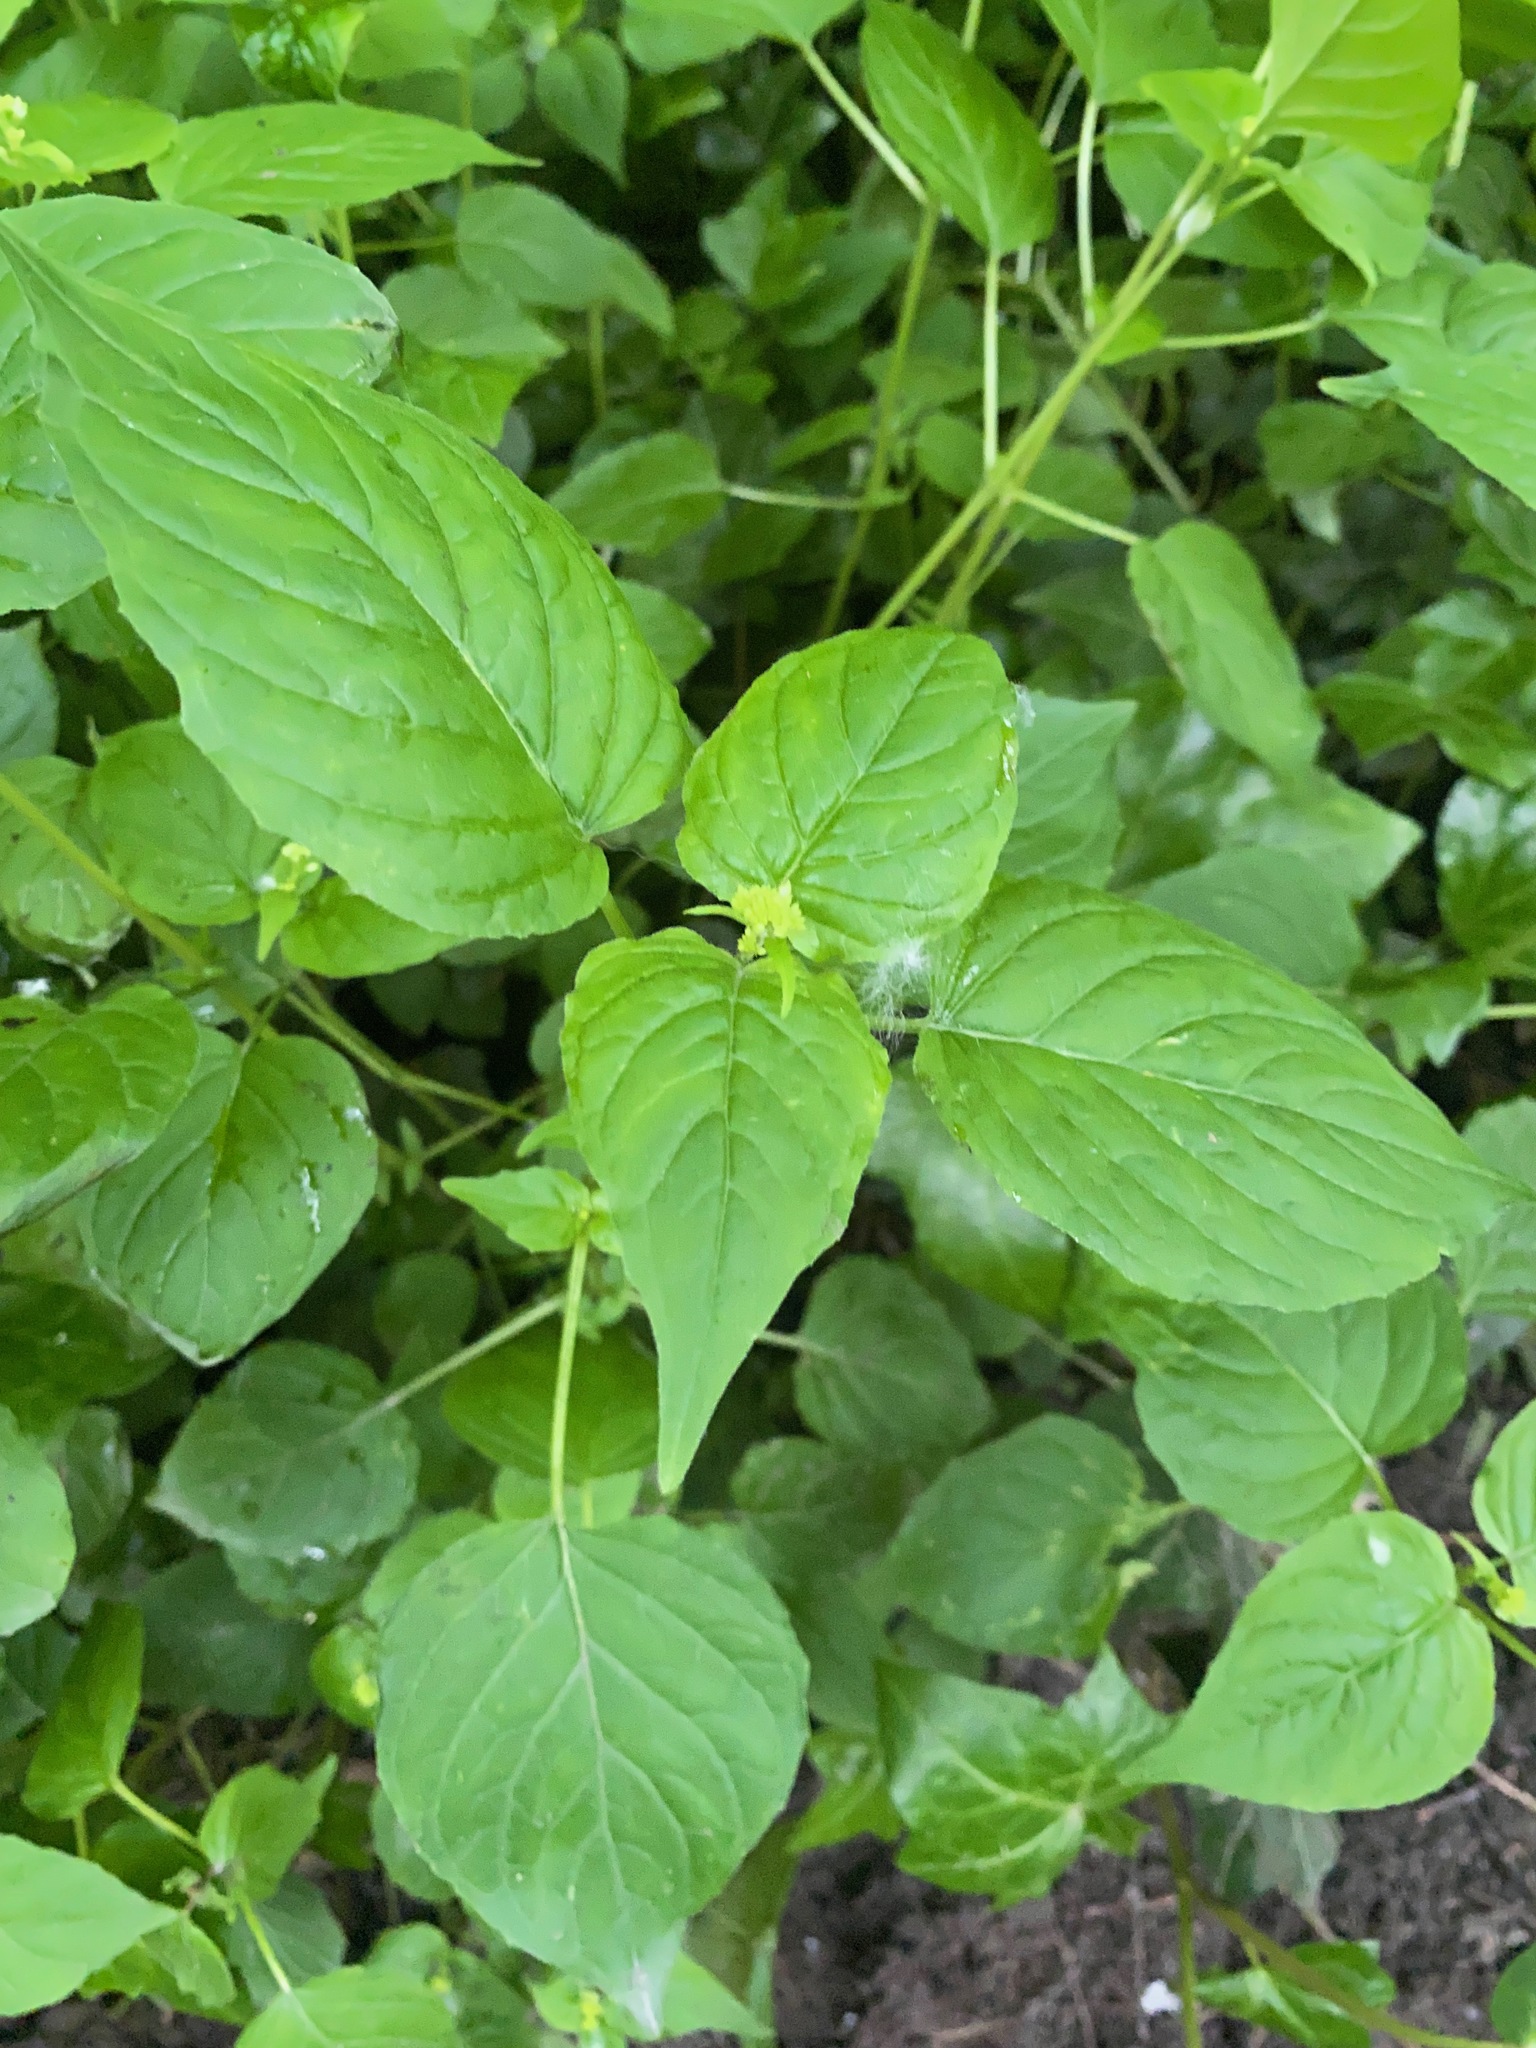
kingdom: Plantae
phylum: Tracheophyta
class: Magnoliopsida
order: Myrtales
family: Onagraceae
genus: Circaea
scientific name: Circaea alpina
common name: Alpine enchanter's-nightshade
